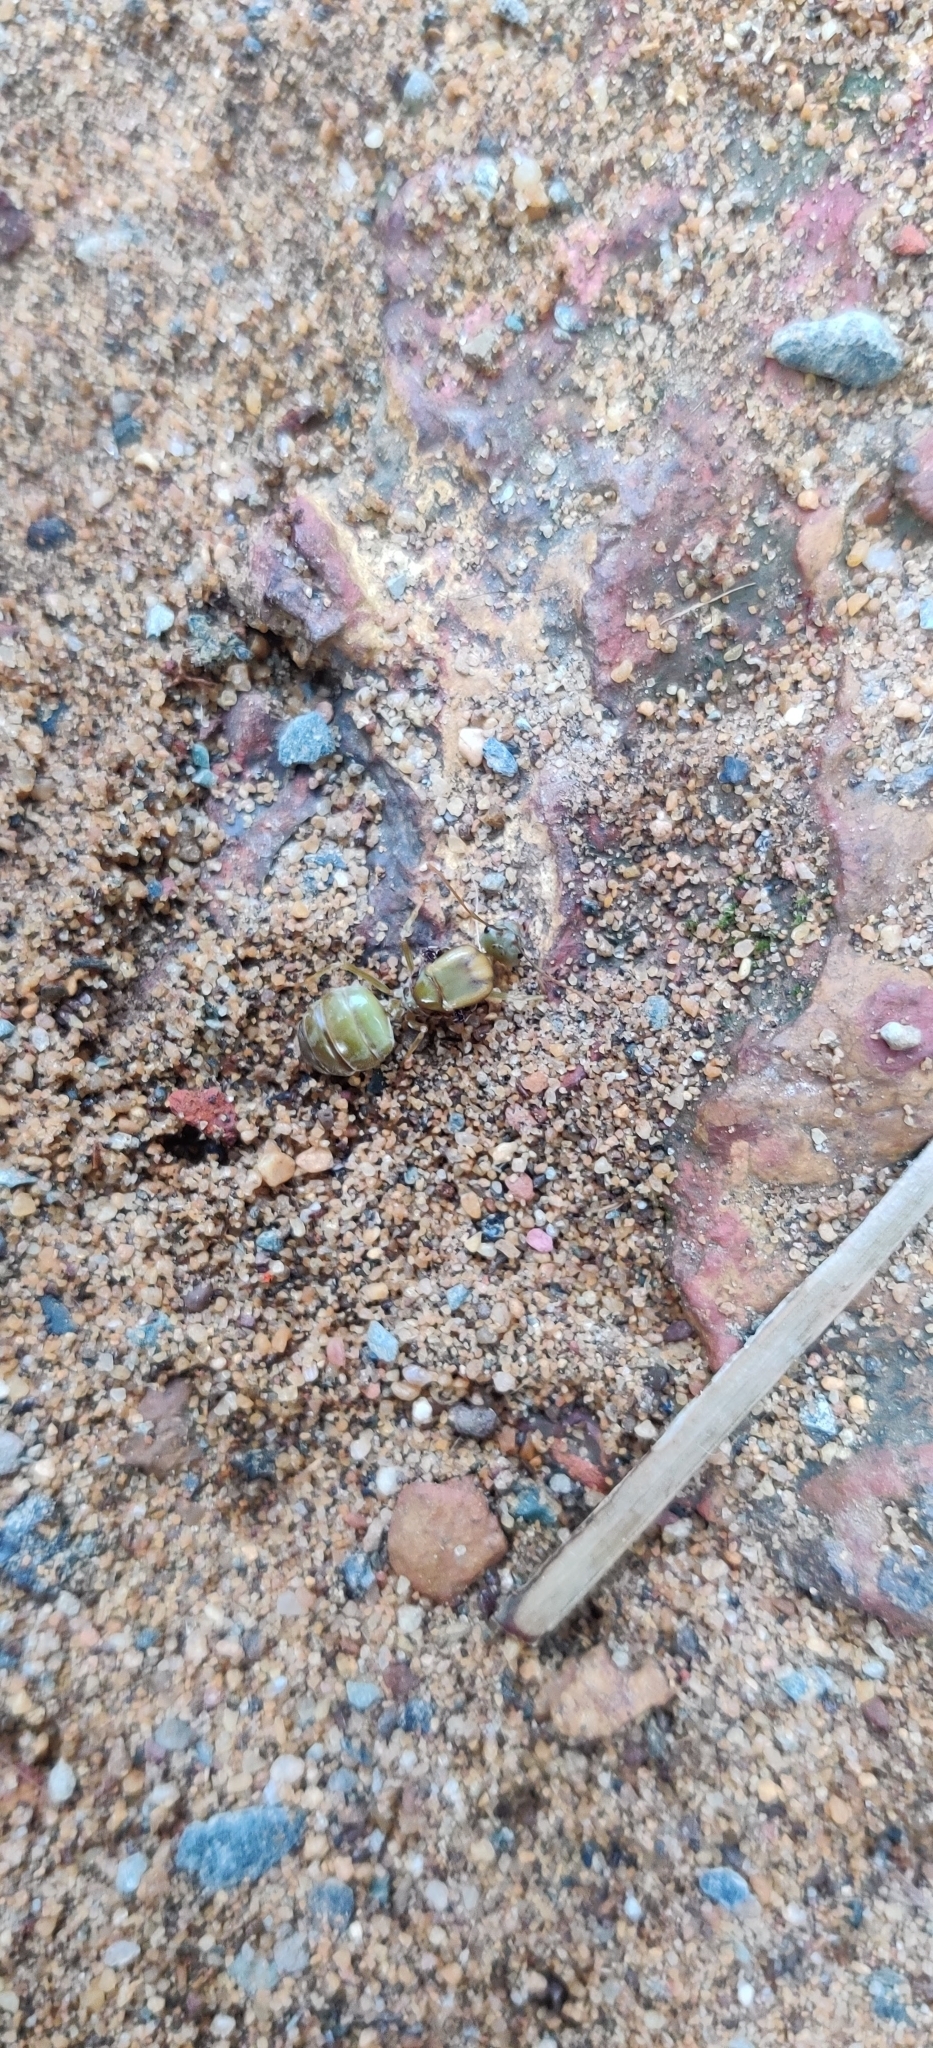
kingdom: Animalia
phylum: Arthropoda
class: Insecta
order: Hymenoptera
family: Formicidae
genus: Oecophylla
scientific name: Oecophylla smaragdina
